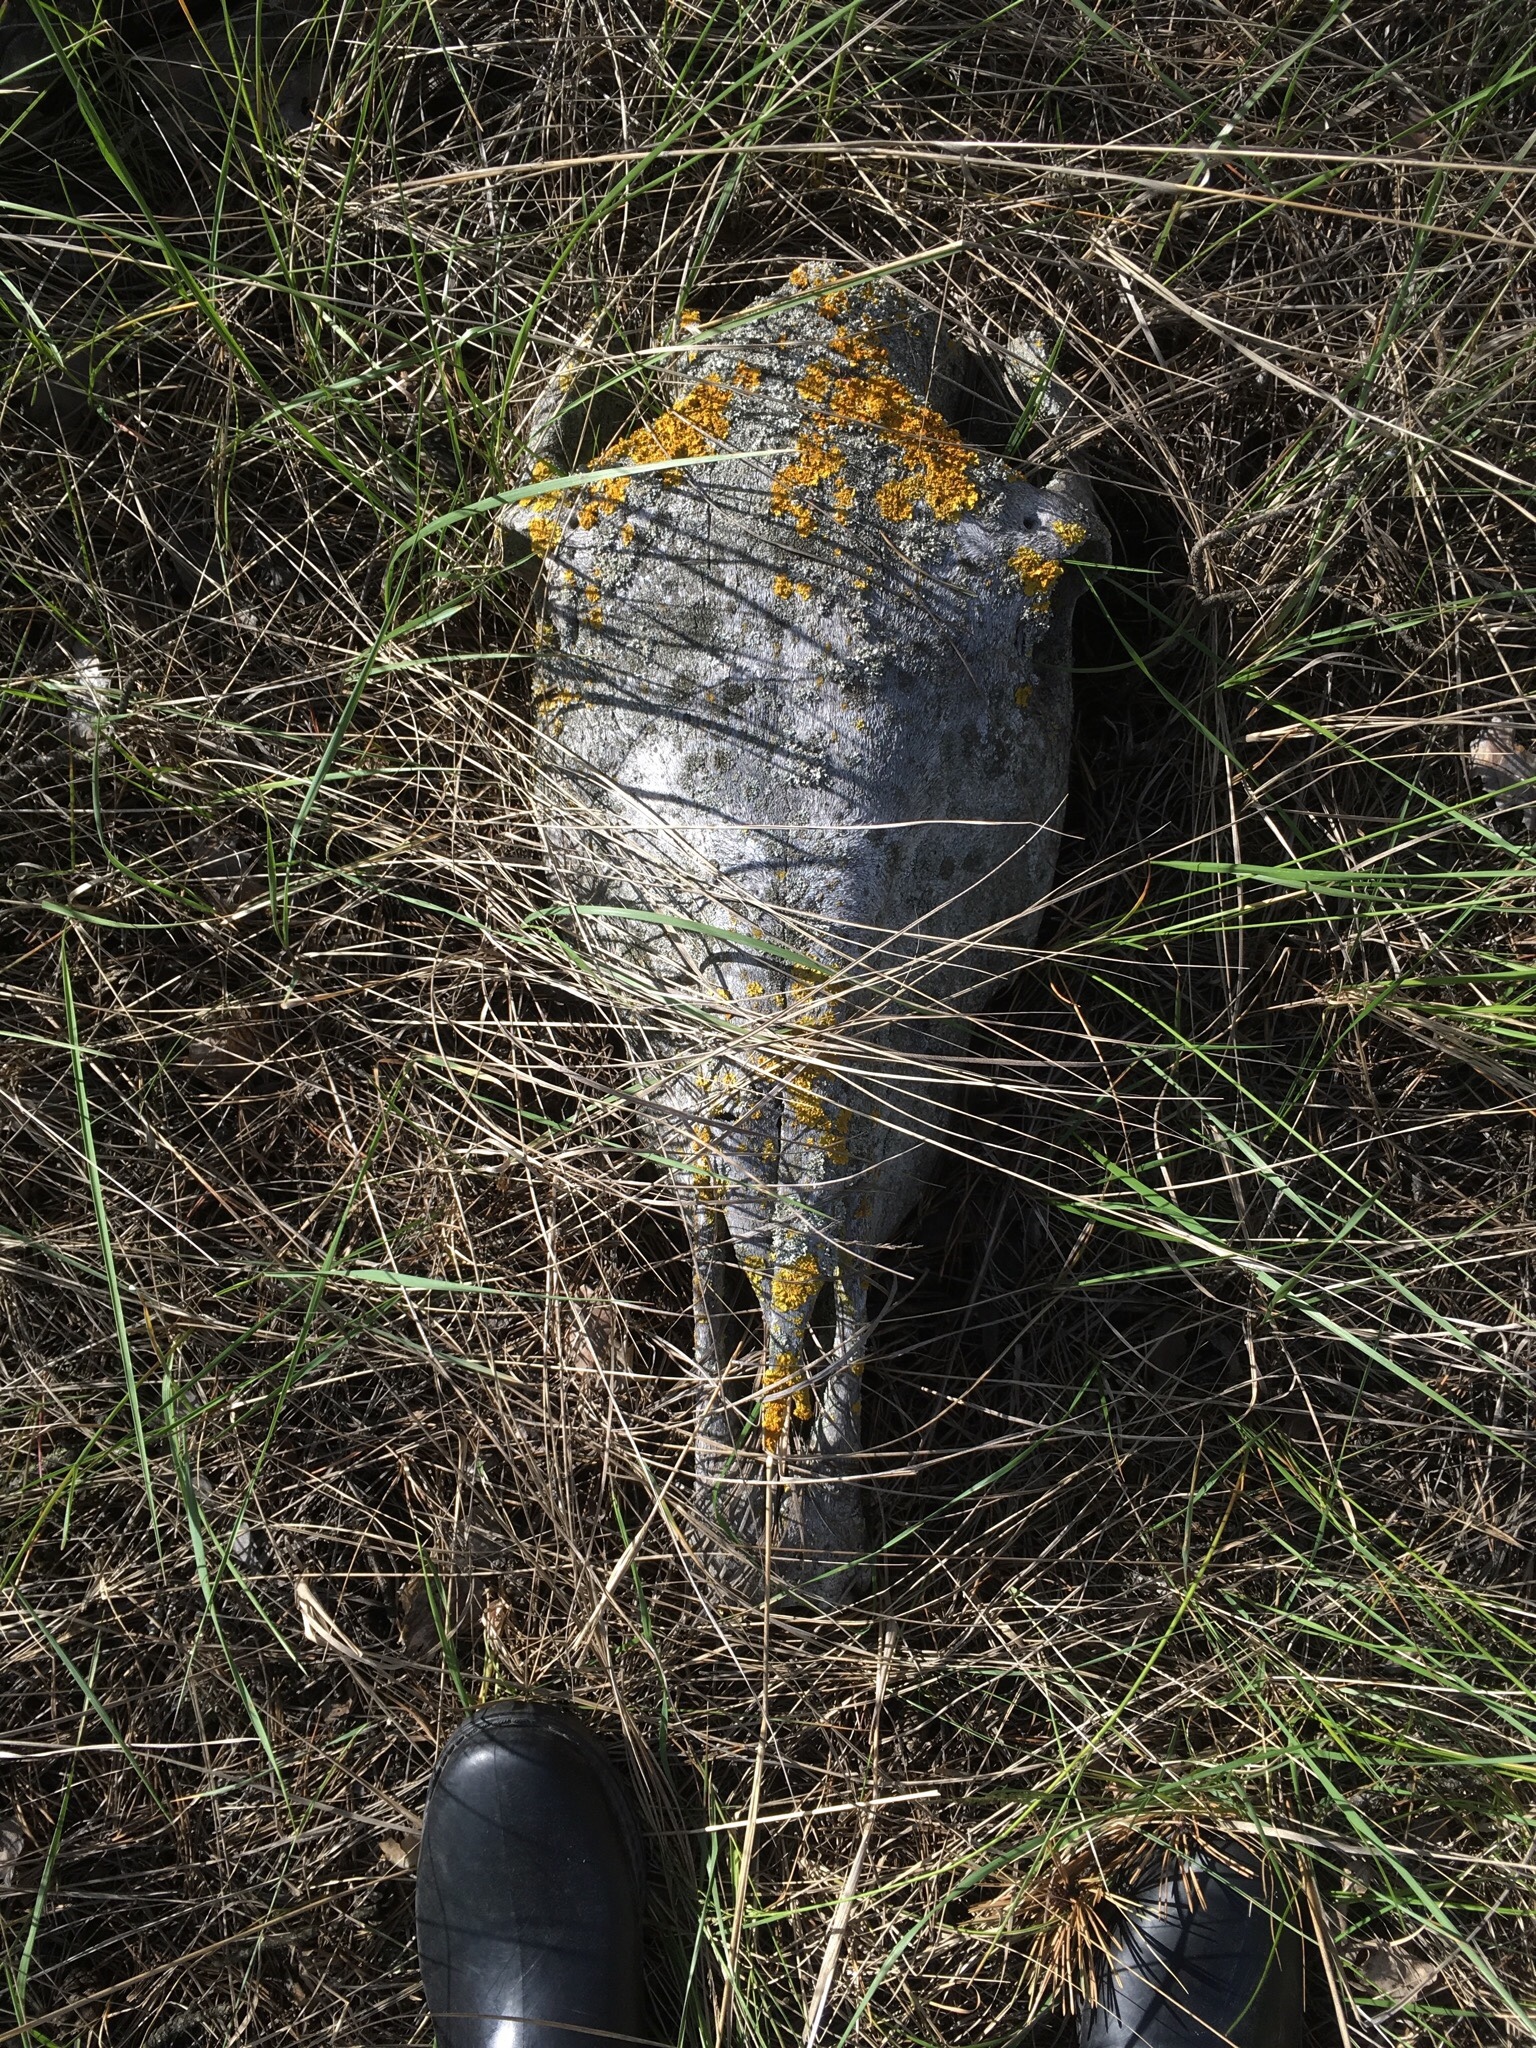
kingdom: Animalia
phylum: Chordata
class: Mammalia
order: Perissodactyla
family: Equidae
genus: Equus
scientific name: Equus caballus
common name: Horse
